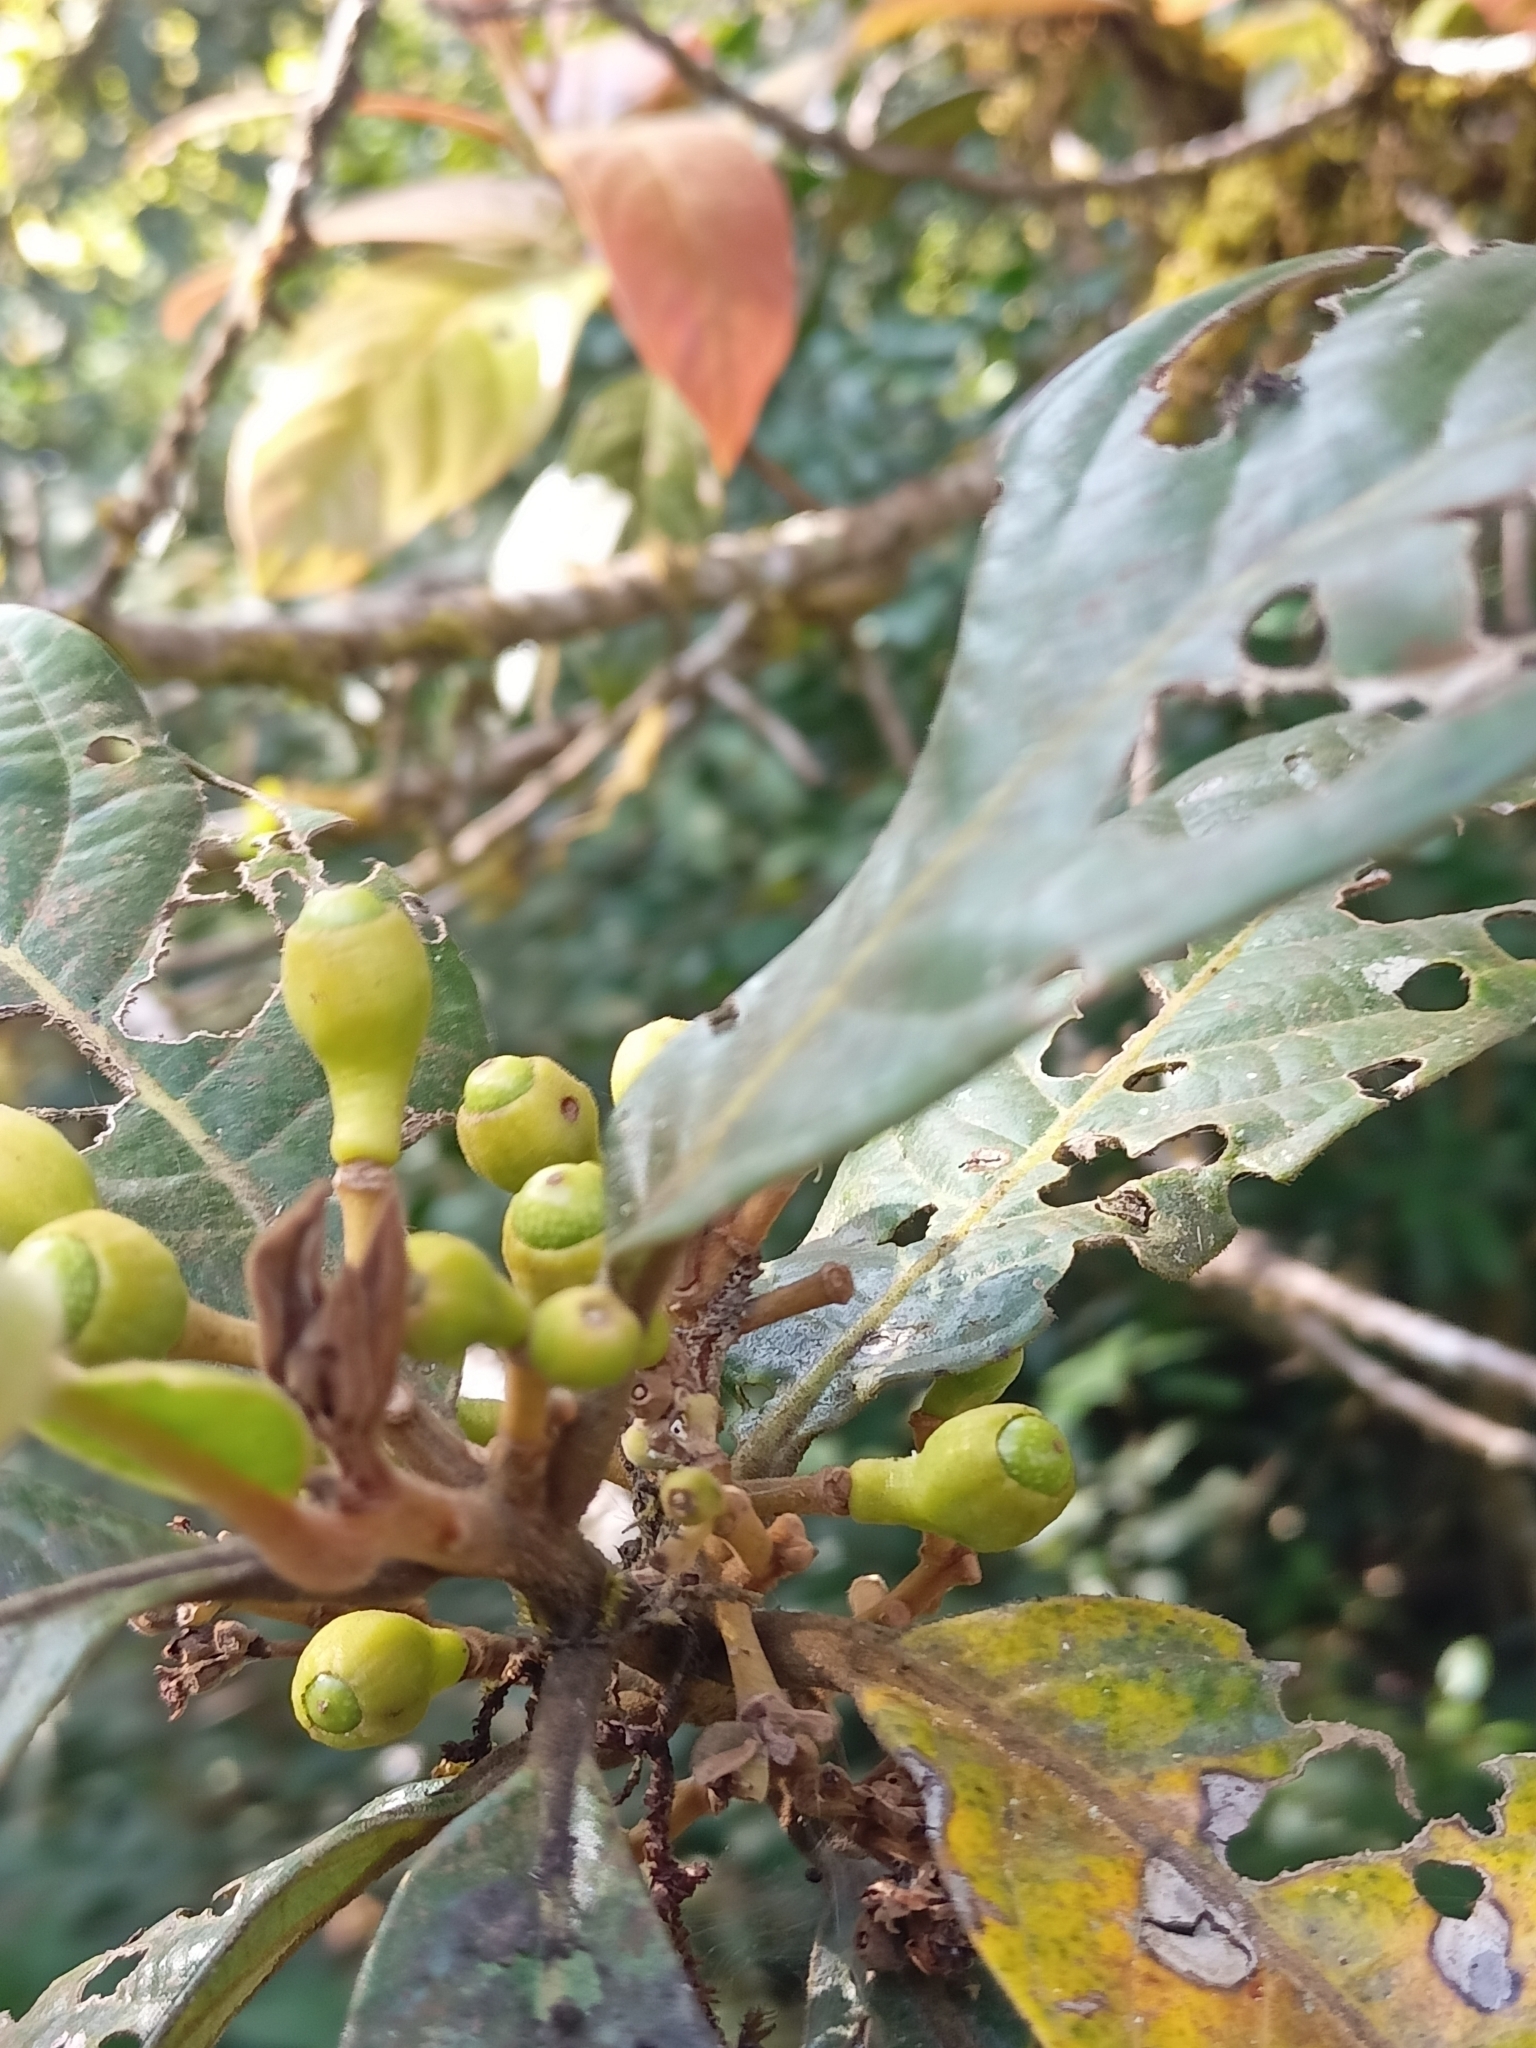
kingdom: Plantae
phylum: Tracheophyta
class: Magnoliopsida
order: Laurales
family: Lauraceae
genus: Litsea
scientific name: Litsea floribunda
